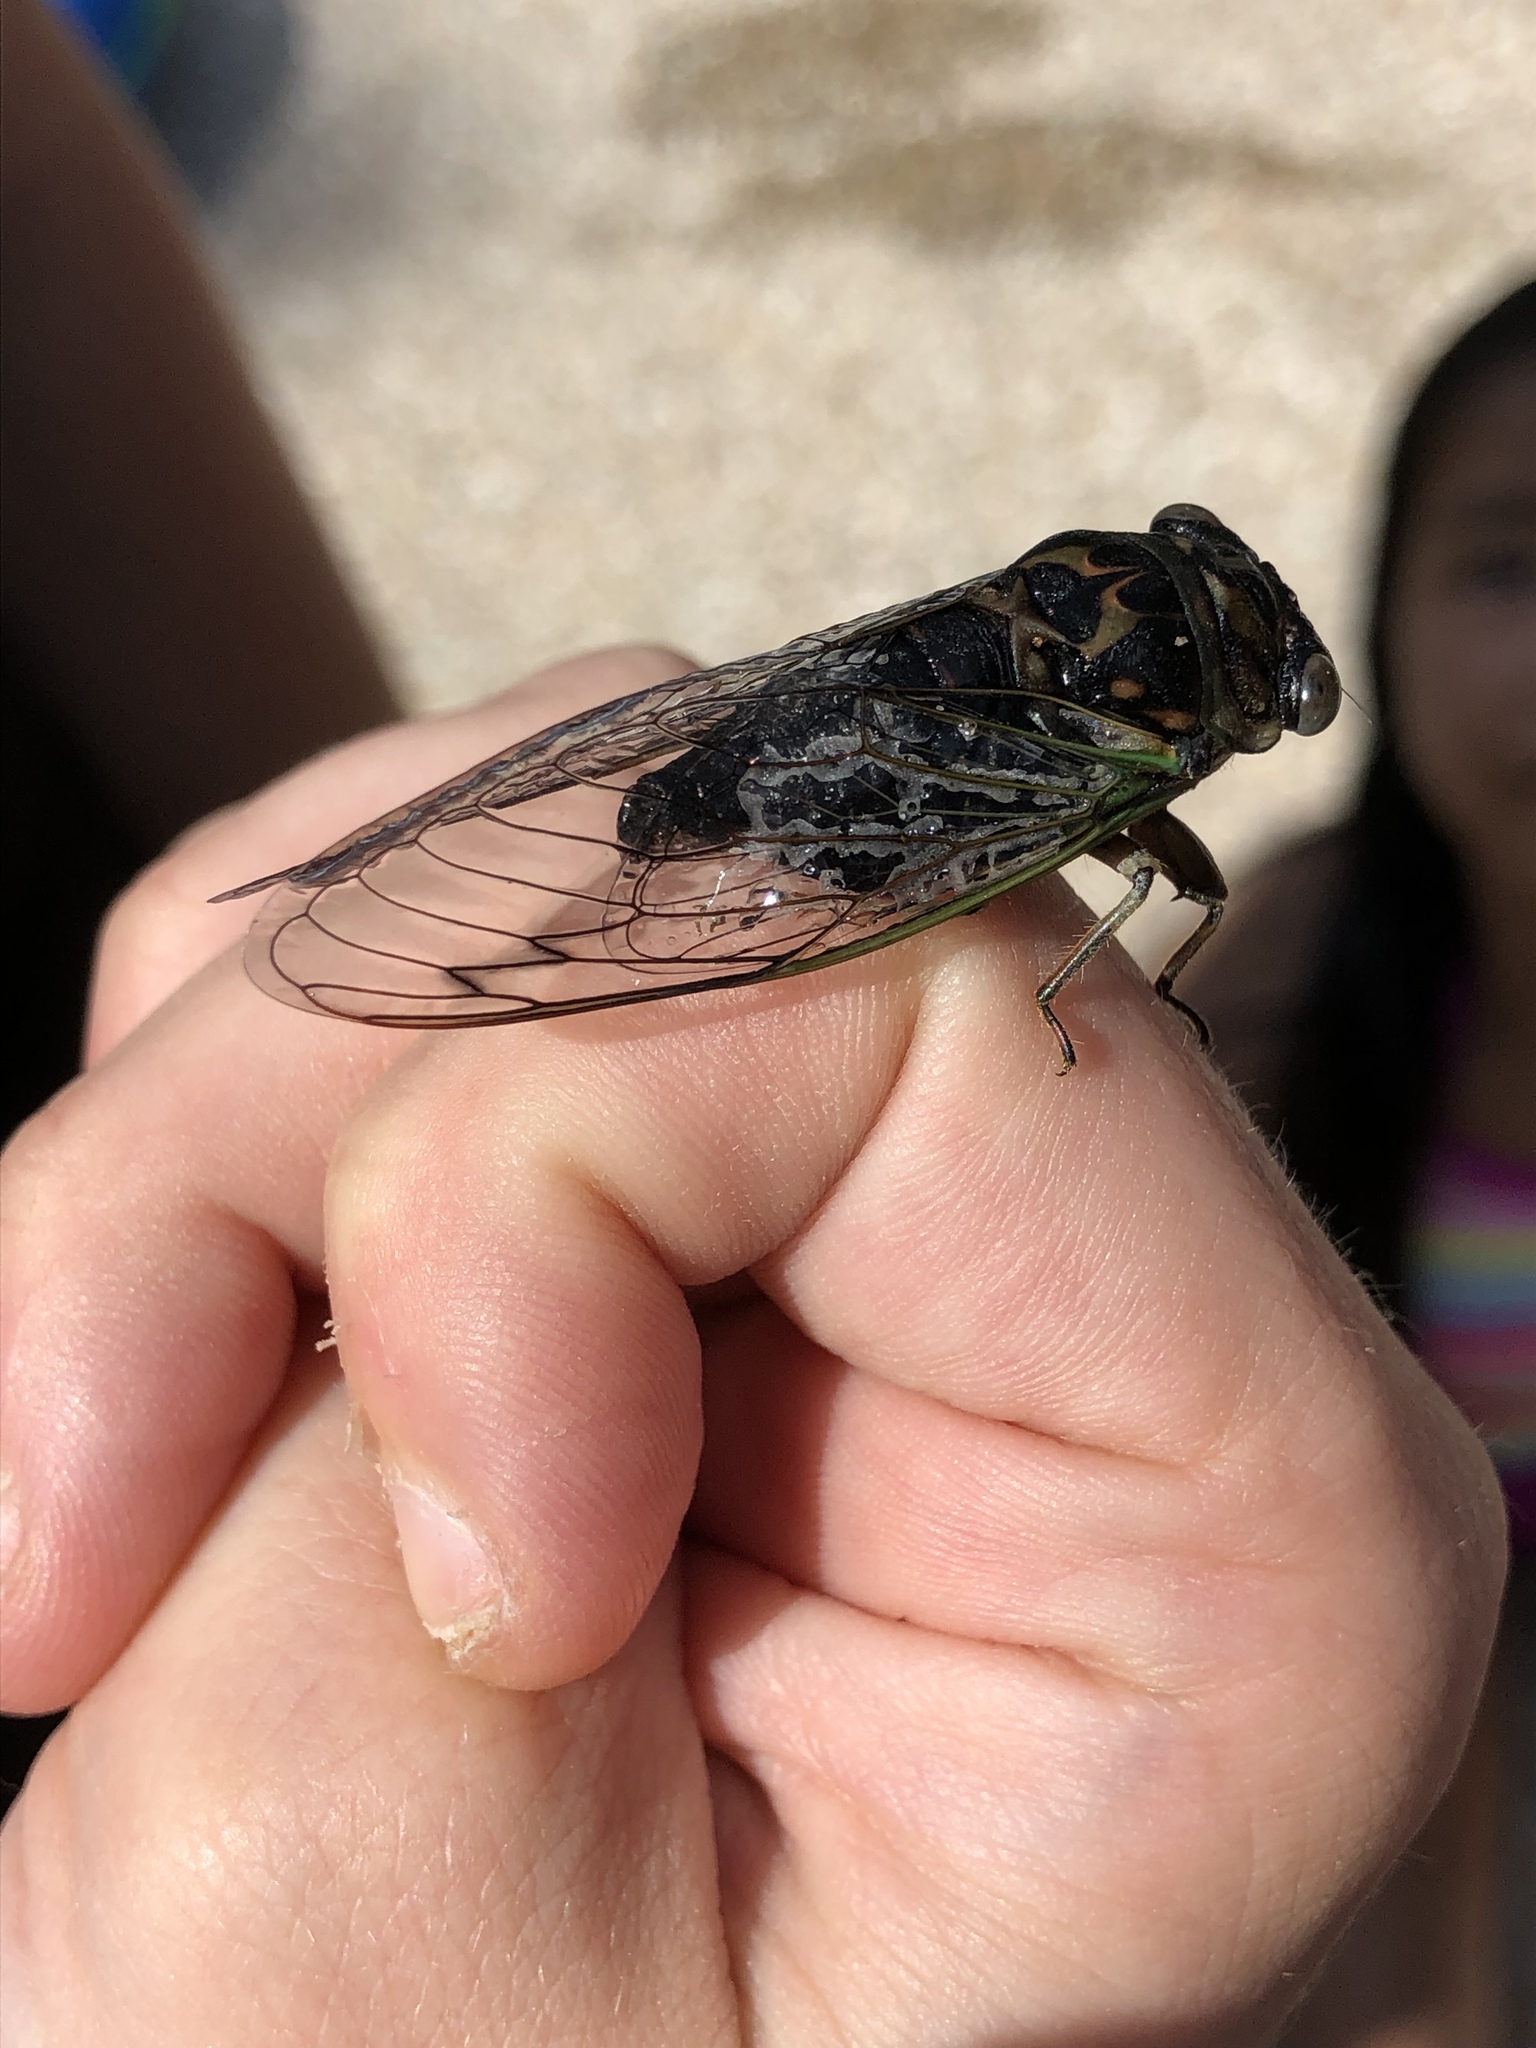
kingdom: Animalia
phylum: Arthropoda
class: Insecta
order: Hemiptera
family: Cicadidae
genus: Neotibicen
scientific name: Neotibicen canicularis
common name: God-day cicada
